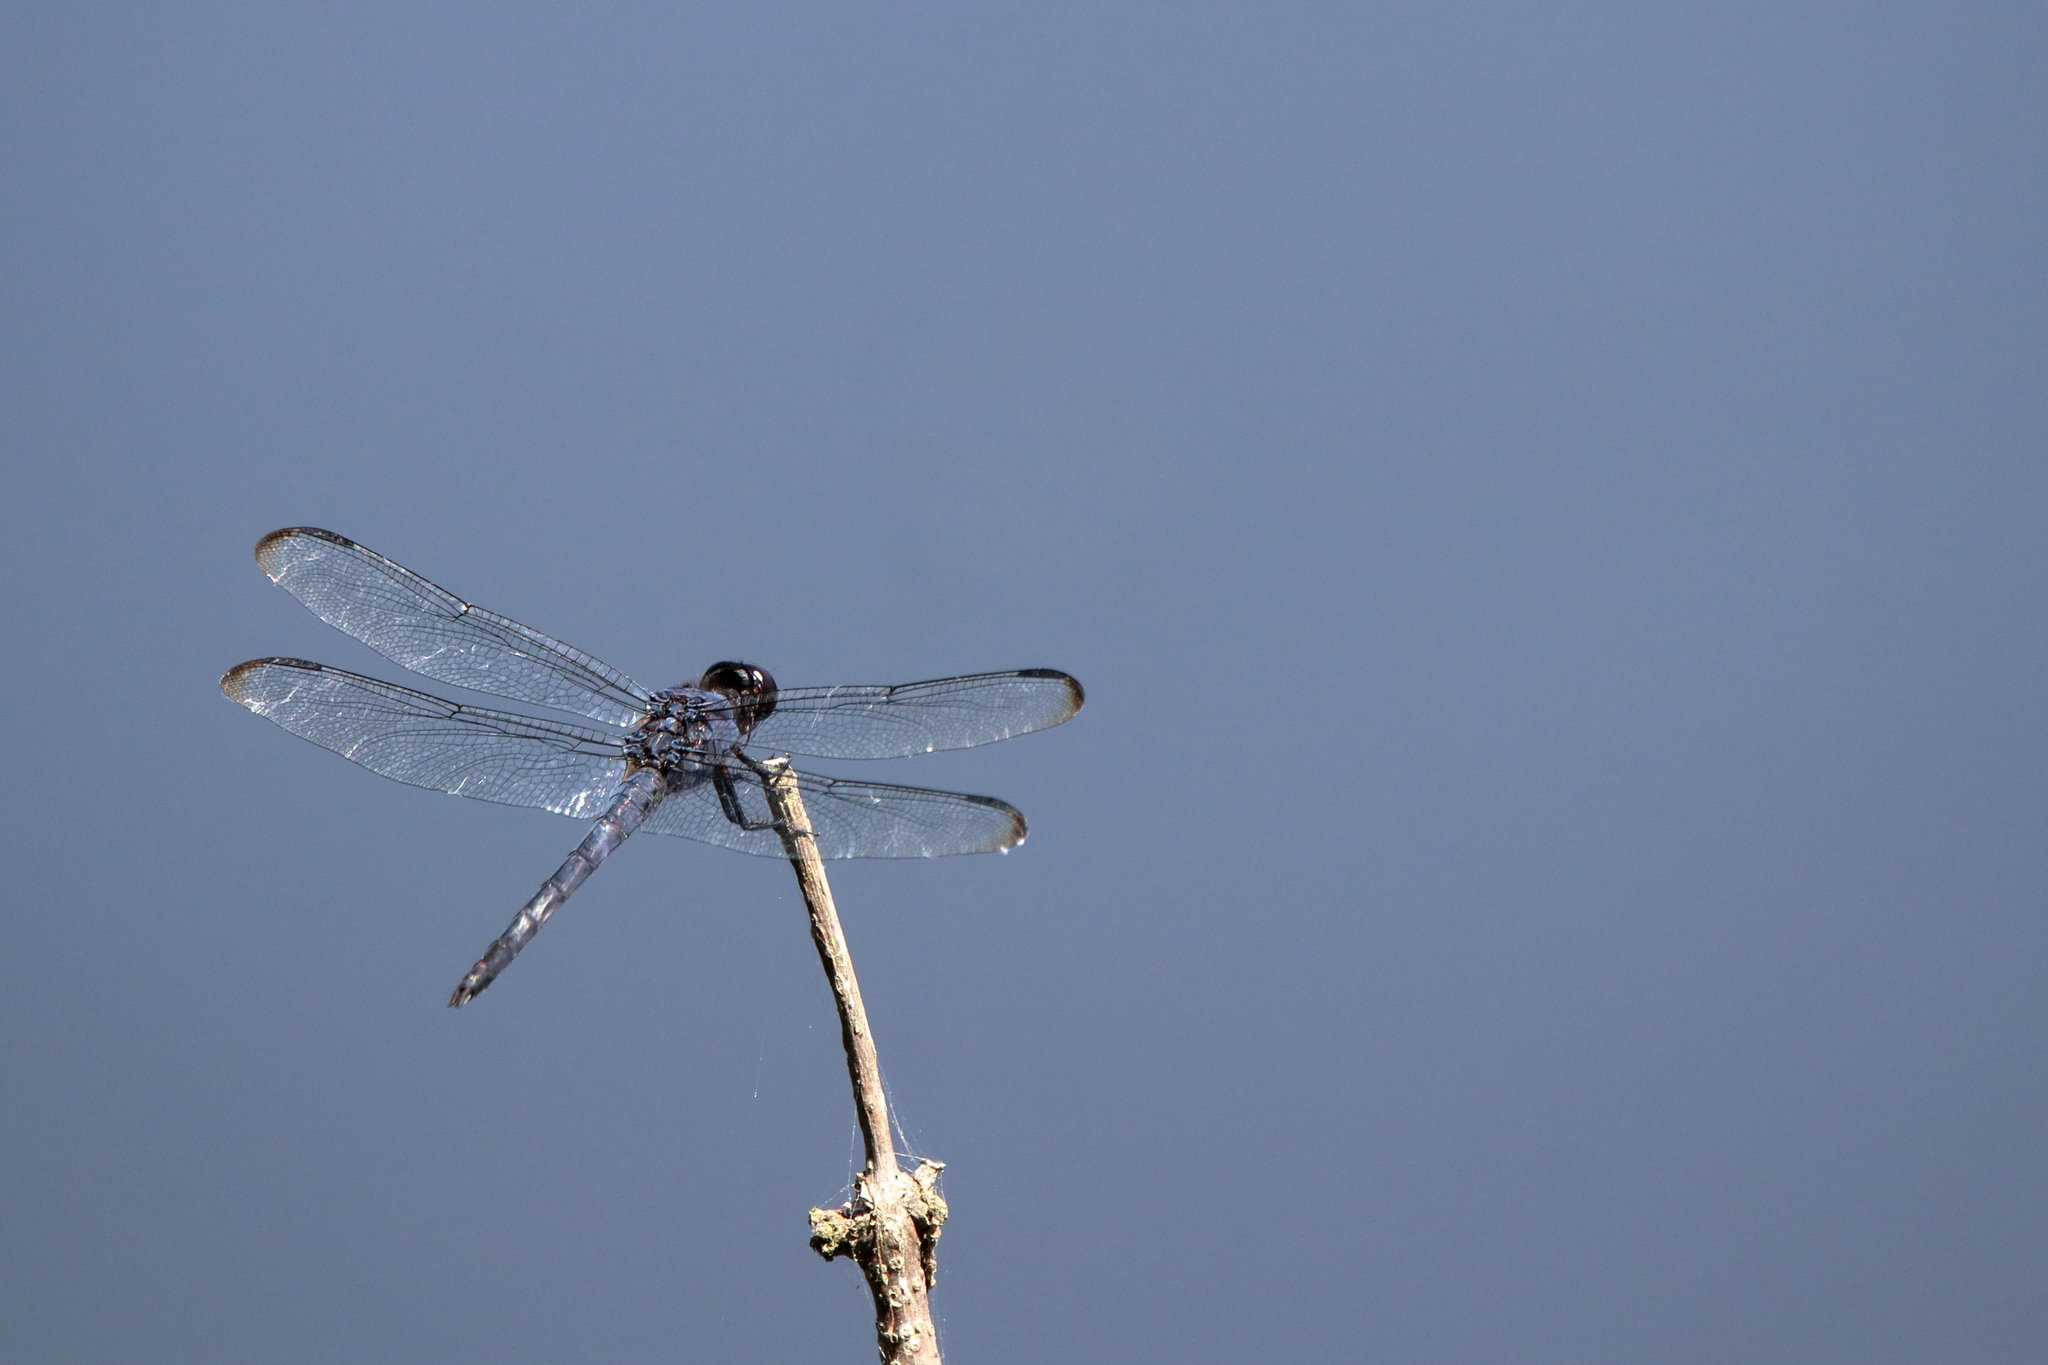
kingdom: Animalia
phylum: Arthropoda
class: Insecta
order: Odonata
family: Libellulidae
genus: Libellula
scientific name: Libellula incesta
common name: Slaty skimmer
